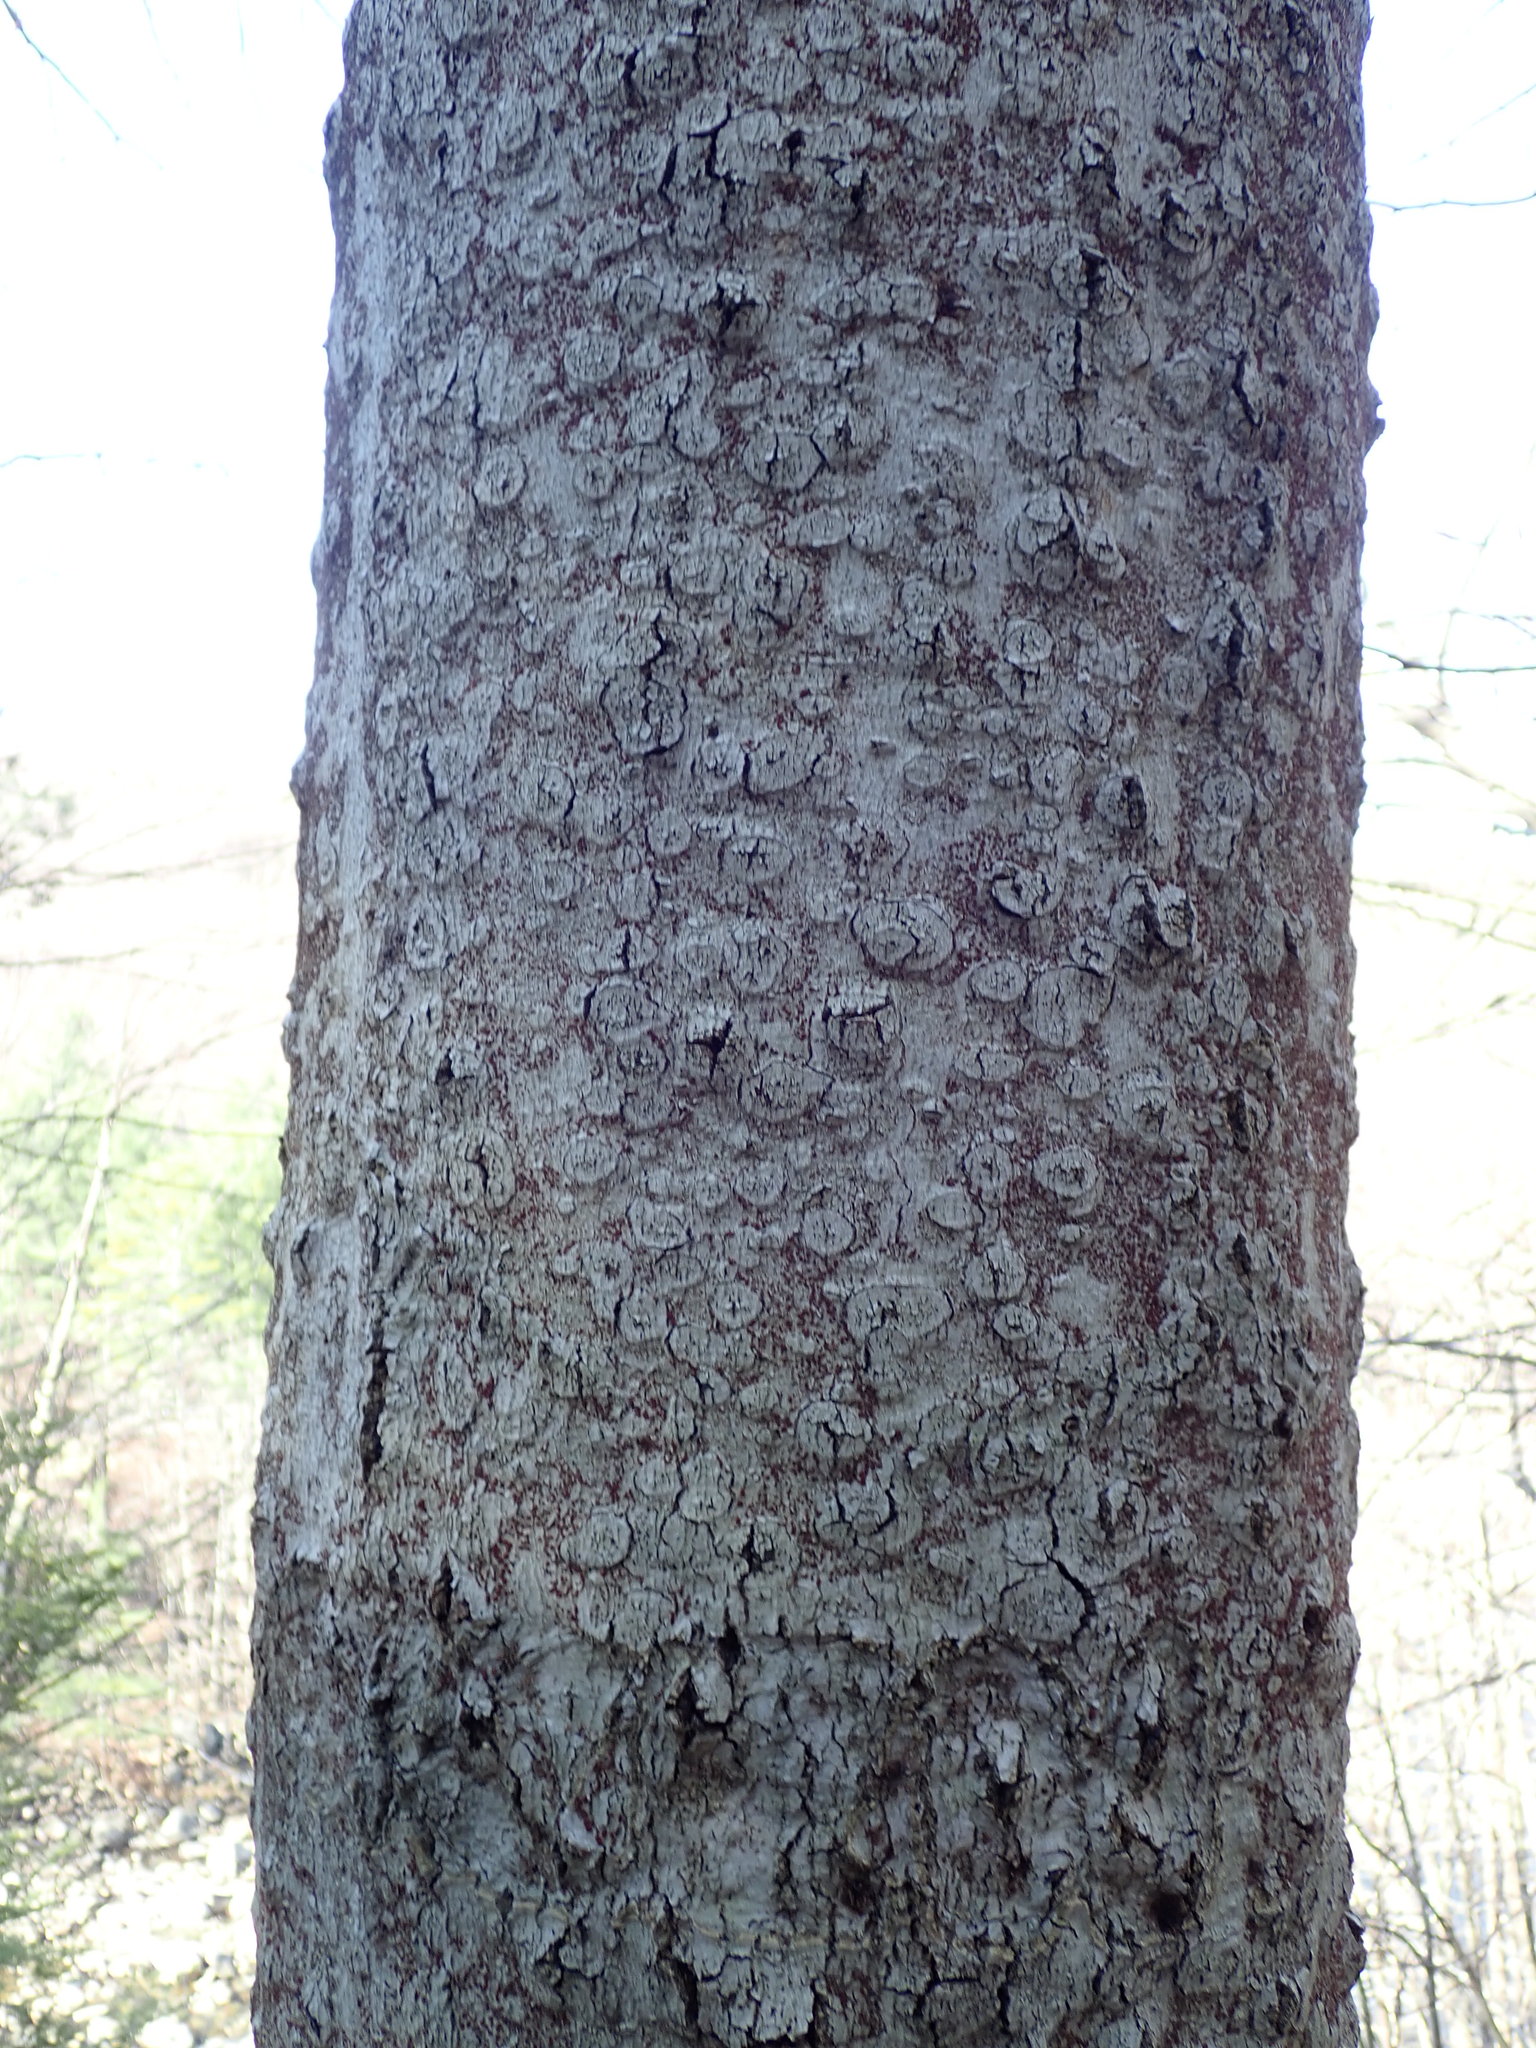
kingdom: Fungi
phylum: Ascomycota
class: Sordariomycetes
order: Hypocreales
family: Nectriaceae
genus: Neonectria
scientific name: Neonectria faginata
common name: Beech bark canker
